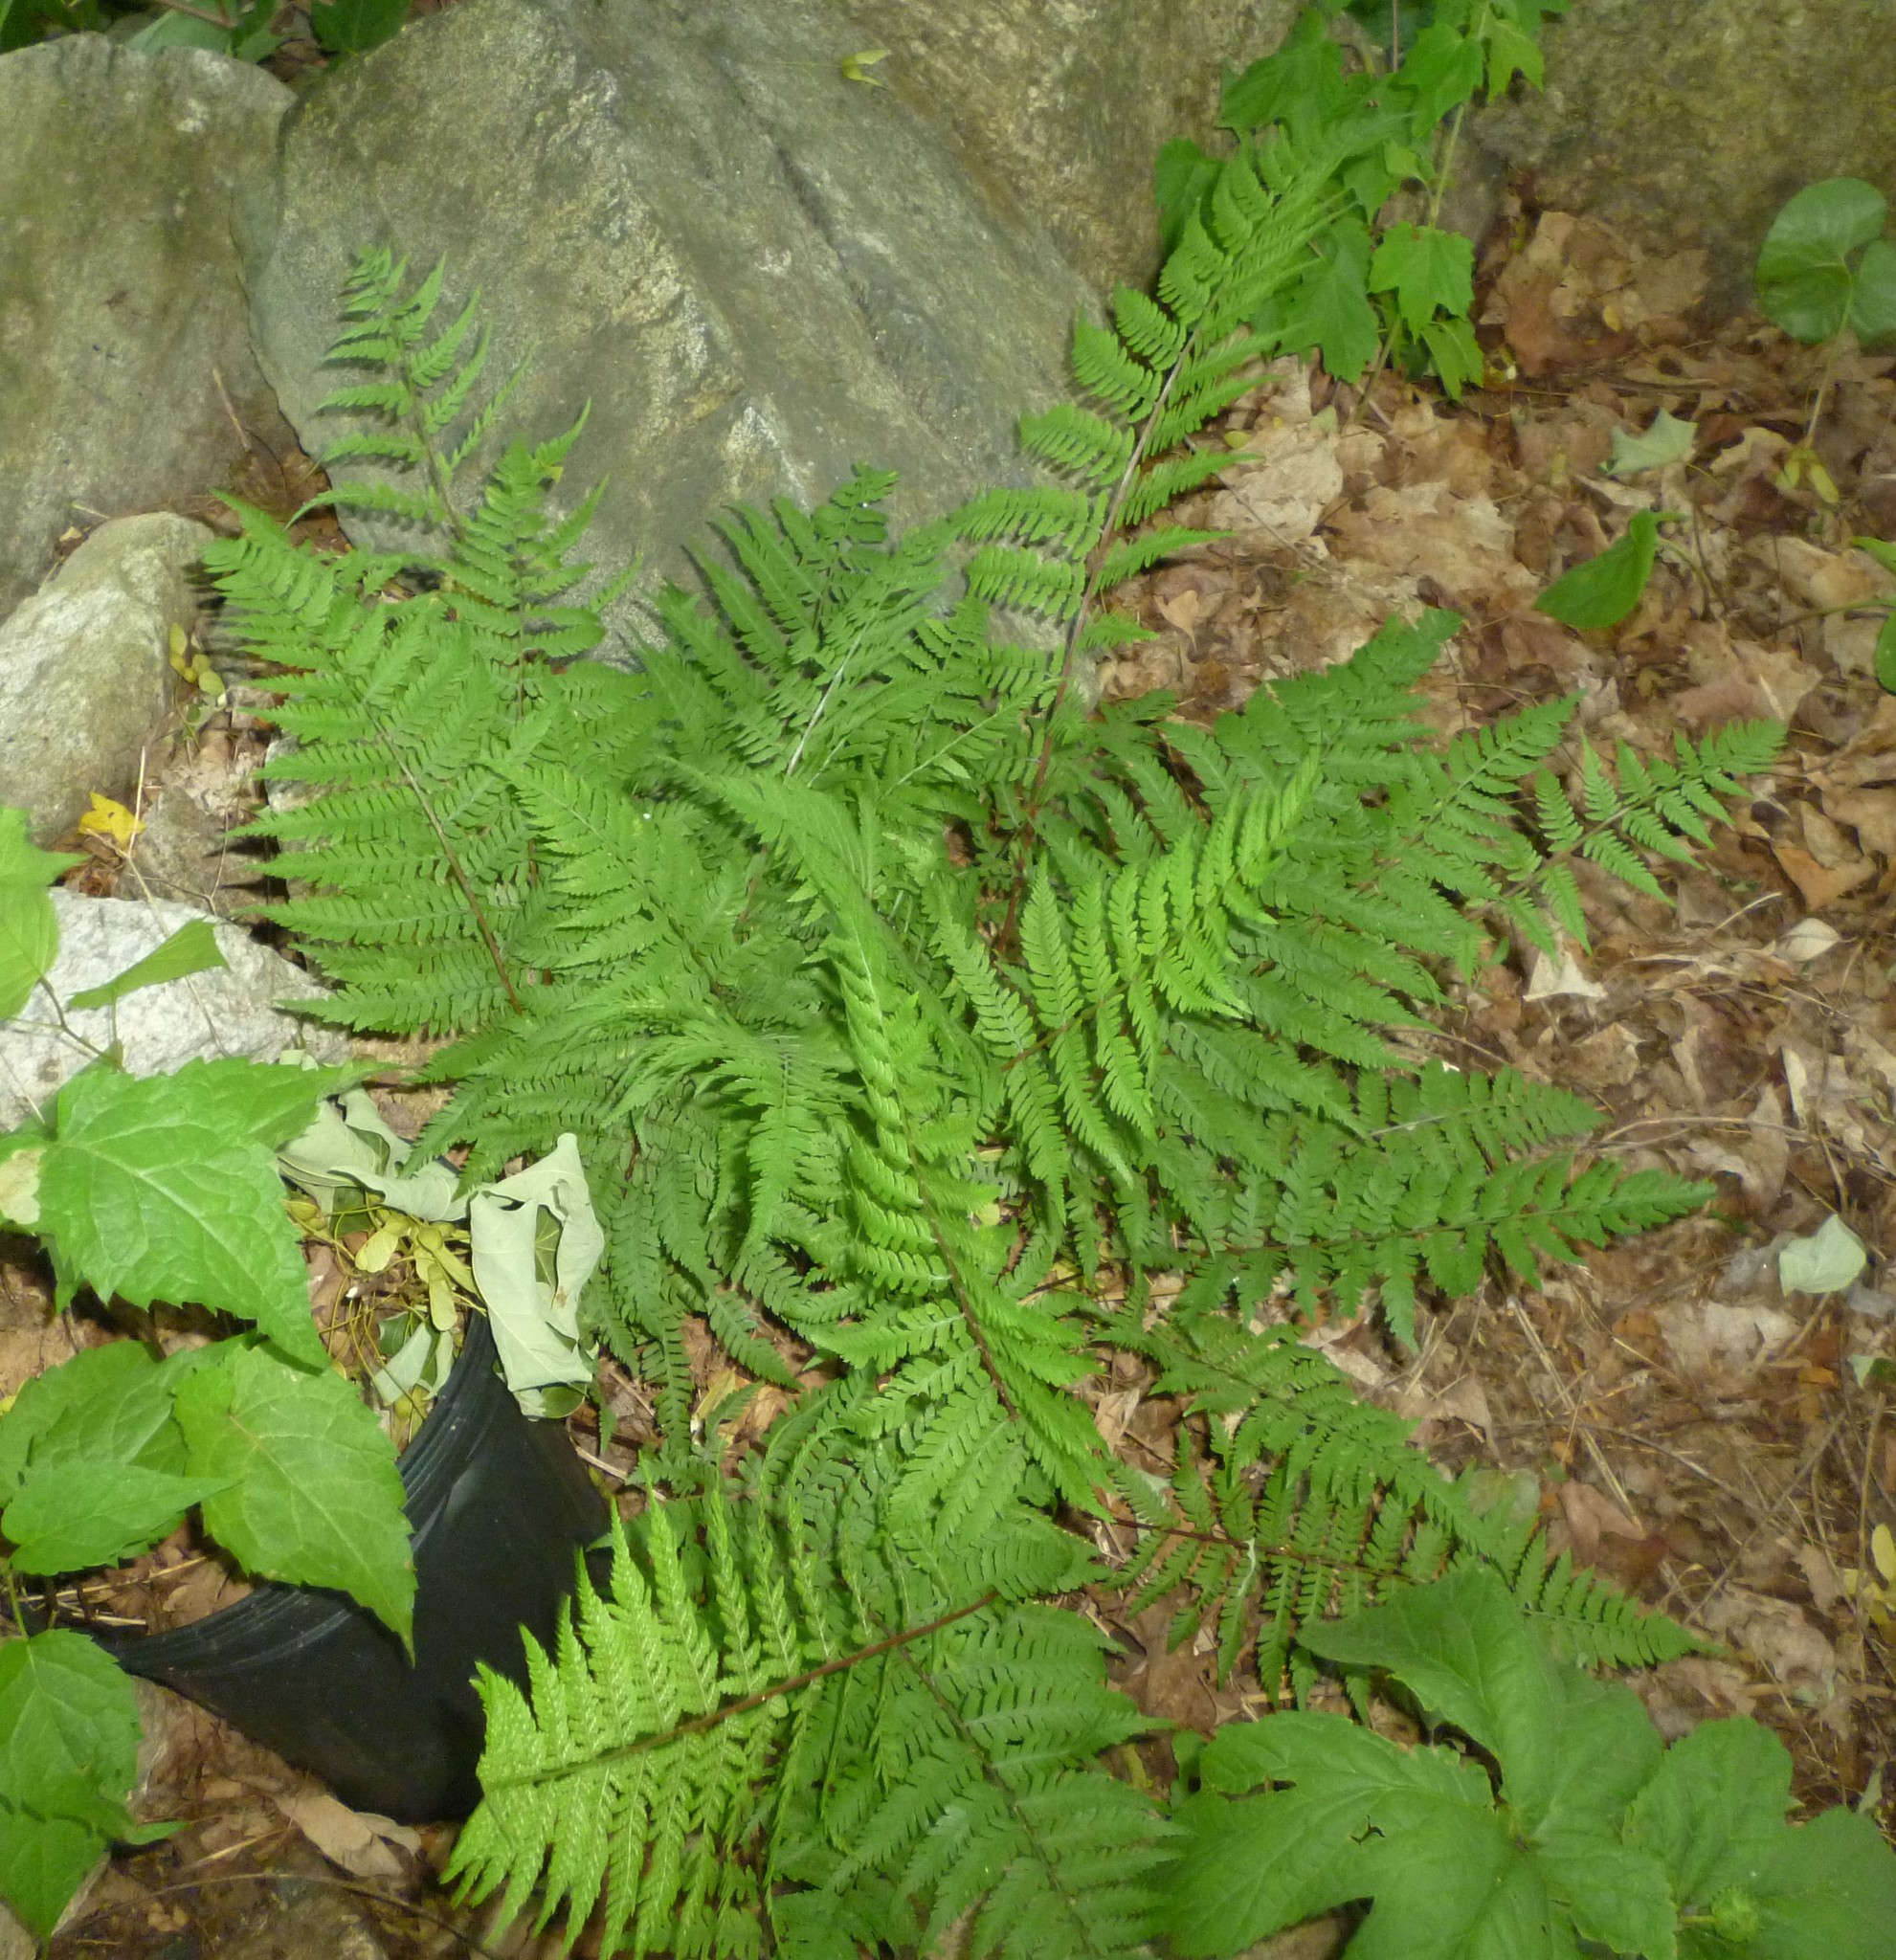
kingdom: Plantae
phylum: Tracheophyta
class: Polypodiopsida
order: Polypodiales
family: Athyriaceae
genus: Athyrium
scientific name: Athyrium angustum
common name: Northern lady fern
